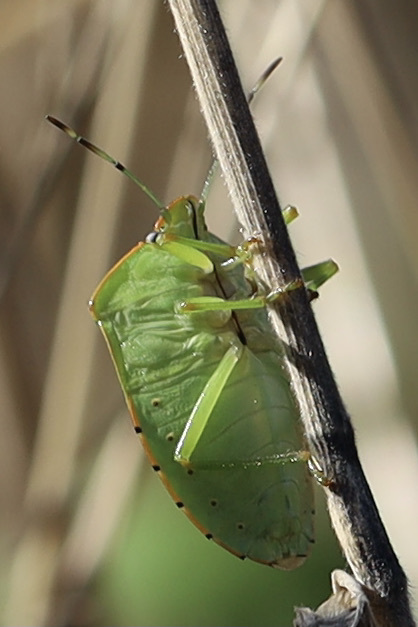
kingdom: Animalia
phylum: Arthropoda
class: Insecta
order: Hemiptera
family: Pentatomidae
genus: Chinavia
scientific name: Chinavia hilaris
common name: Green stink bug
